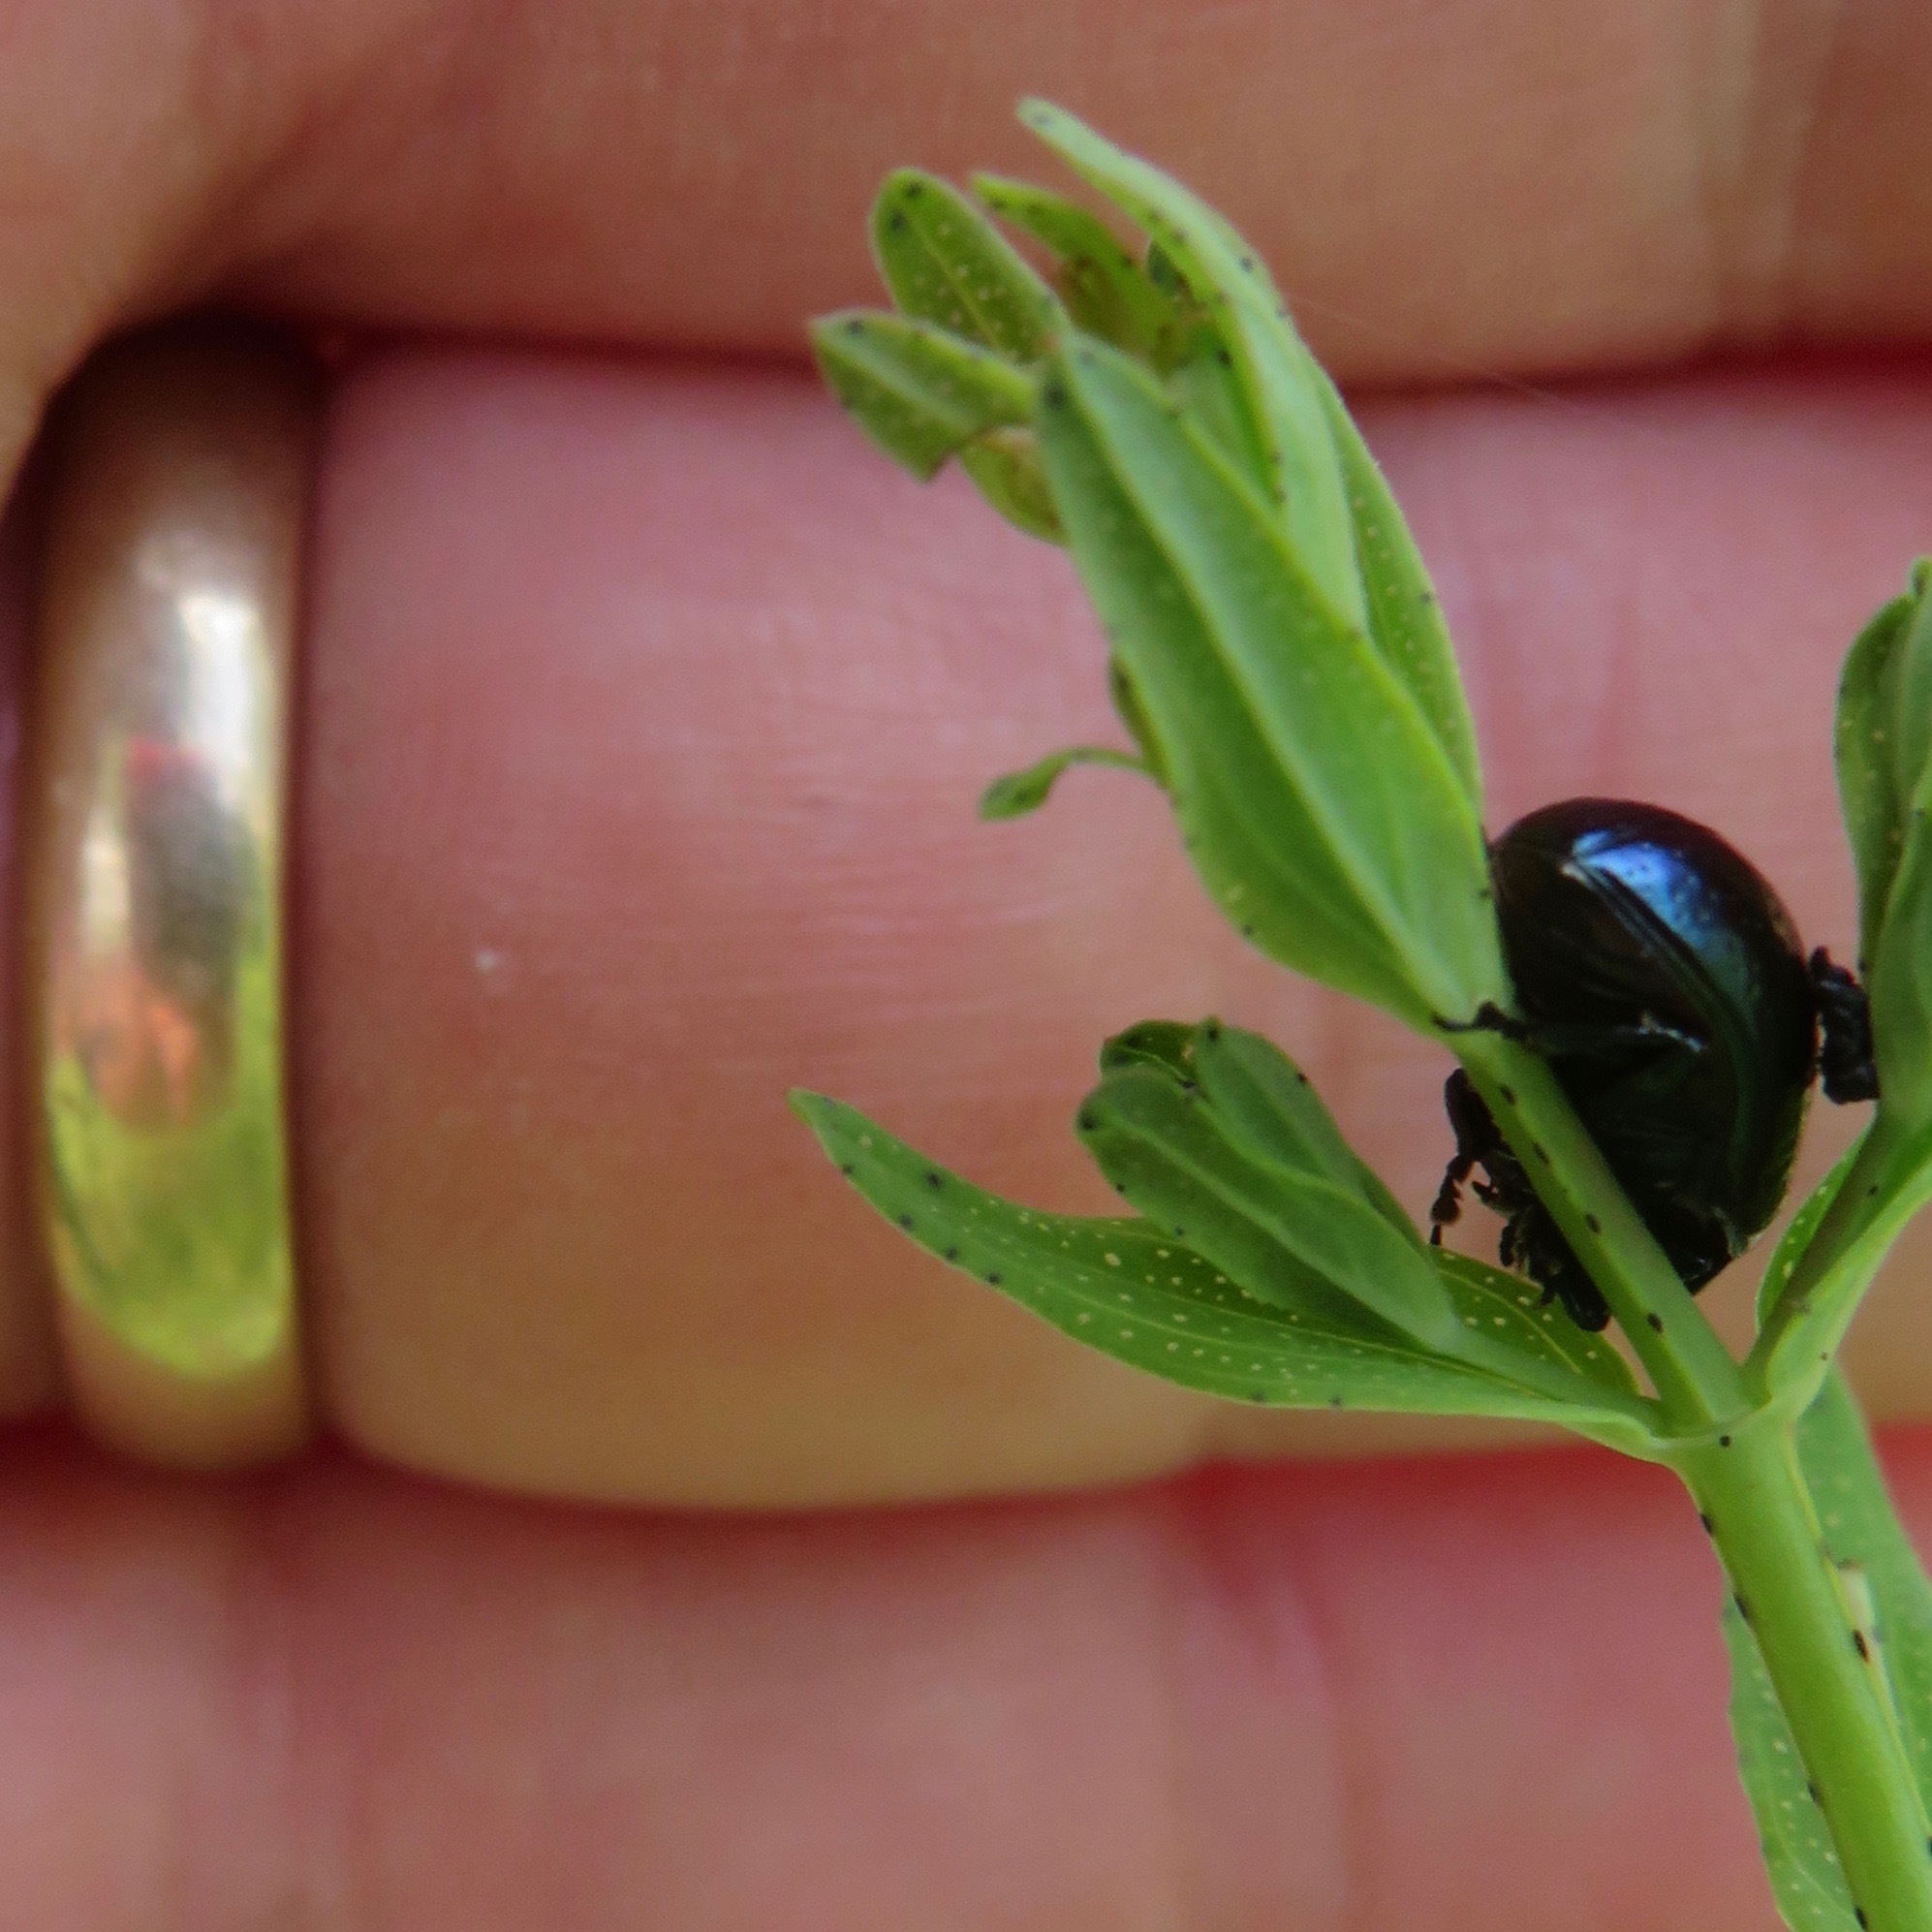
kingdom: Animalia
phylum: Arthropoda
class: Insecta
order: Coleoptera
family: Chrysomelidae
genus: Chrysolina
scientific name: Chrysolina hyperici
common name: St. johnswort beetle
